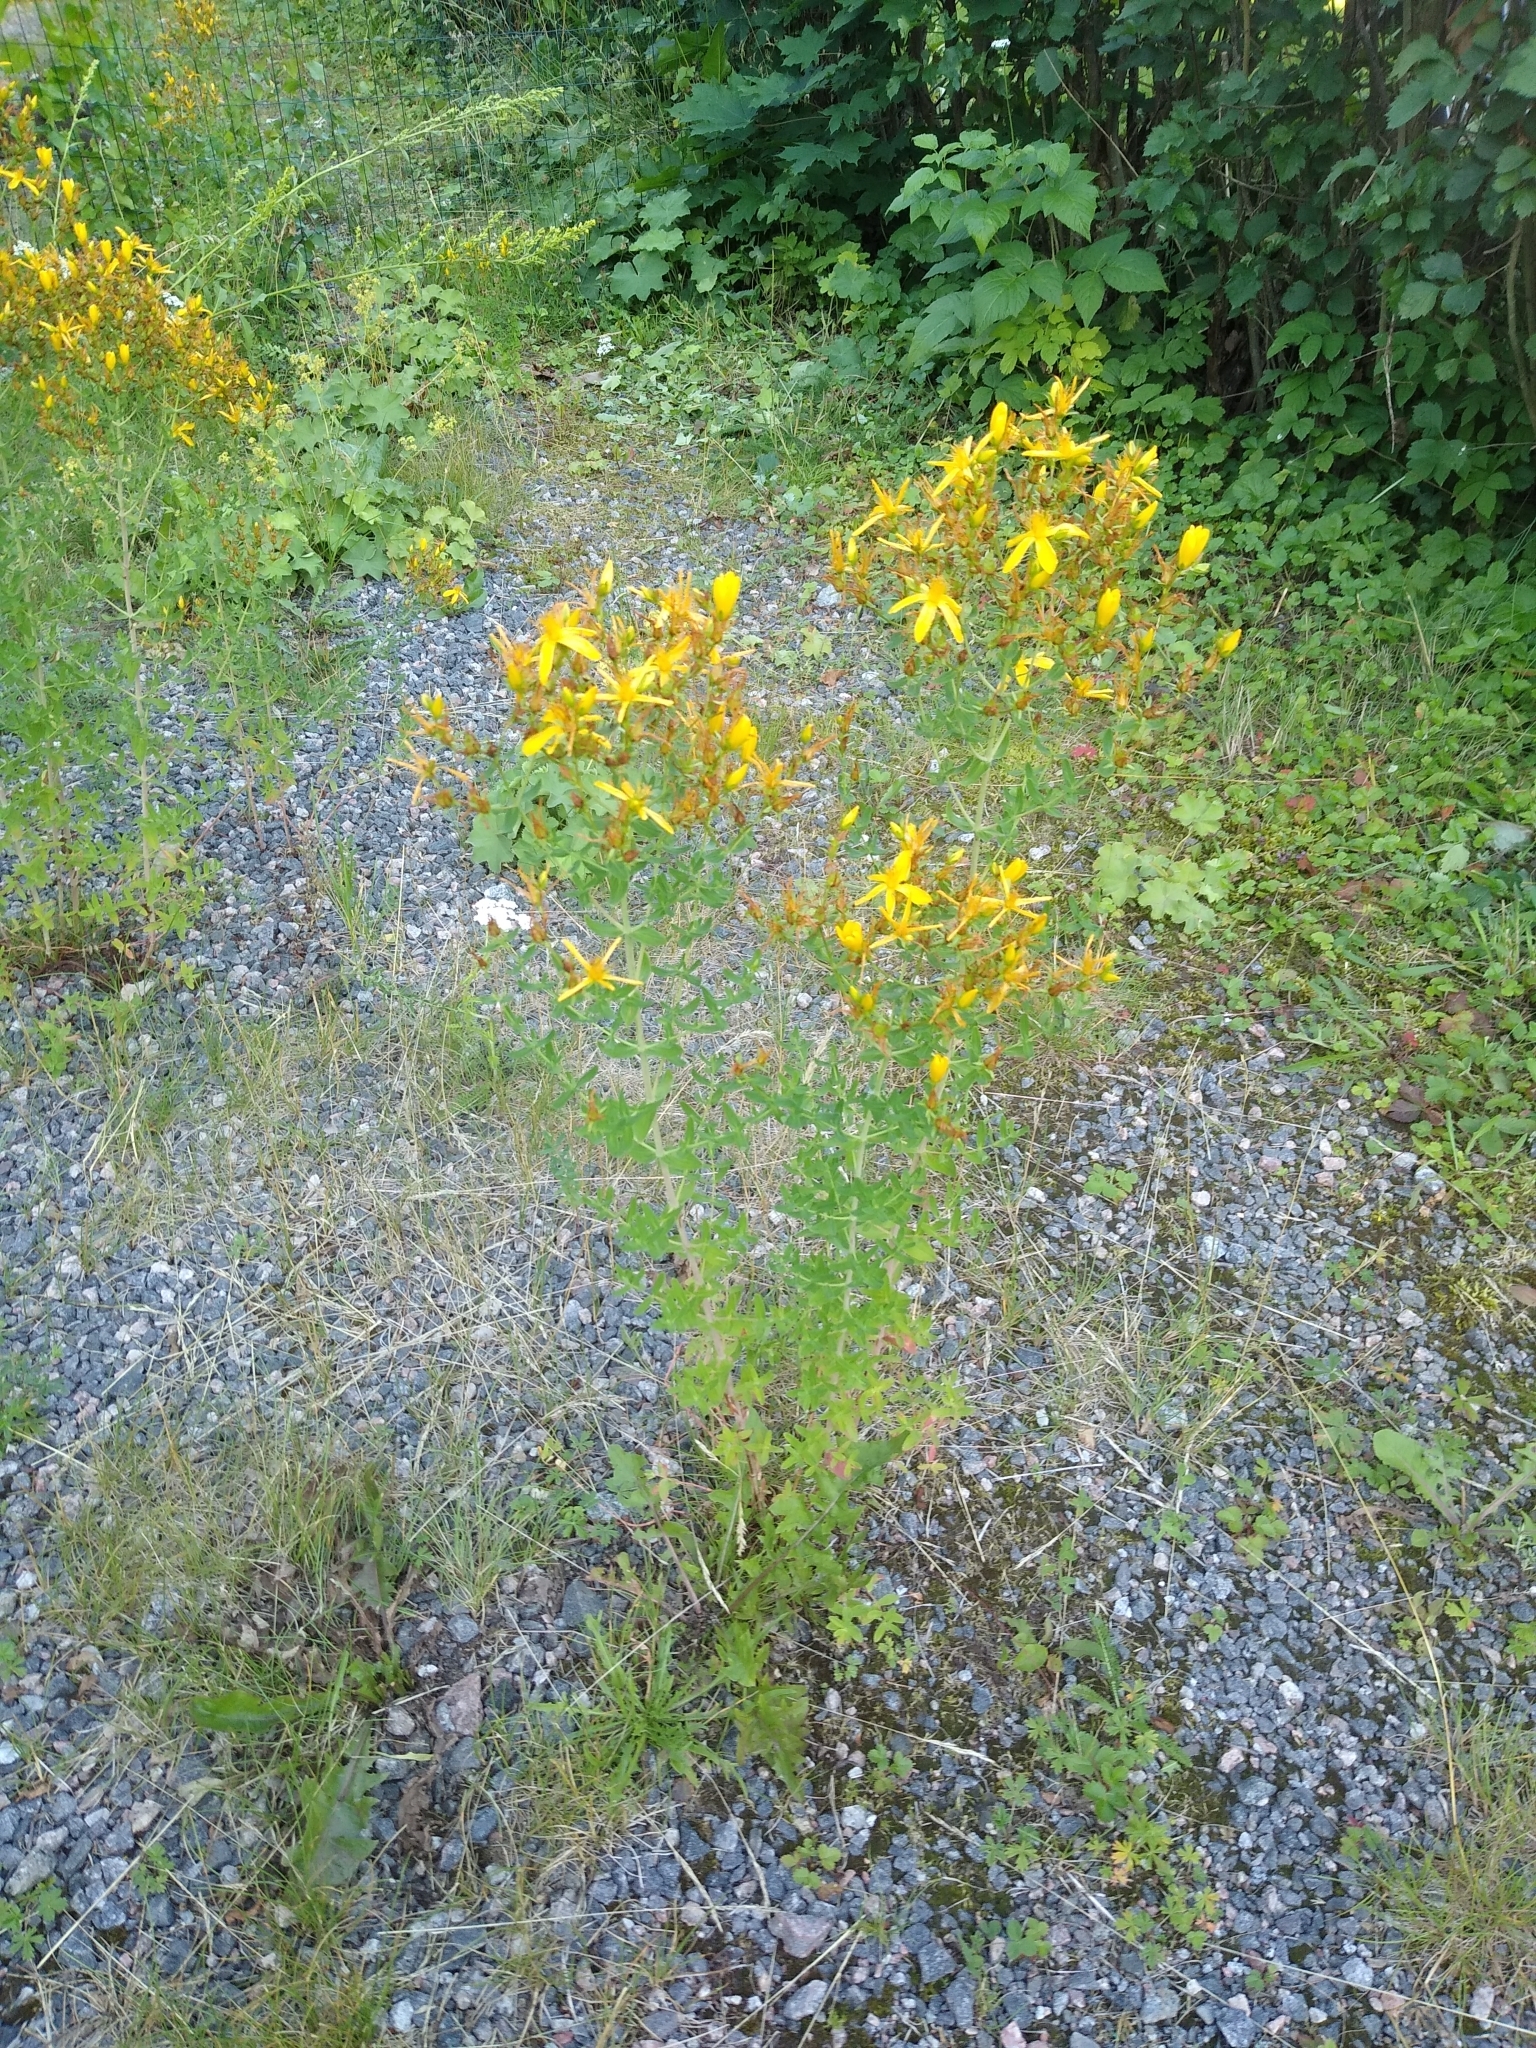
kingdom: Plantae
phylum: Tracheophyta
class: Magnoliopsida
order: Malpighiales
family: Hypericaceae
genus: Hypericum
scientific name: Hypericum perforatum
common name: Common st. johnswort
